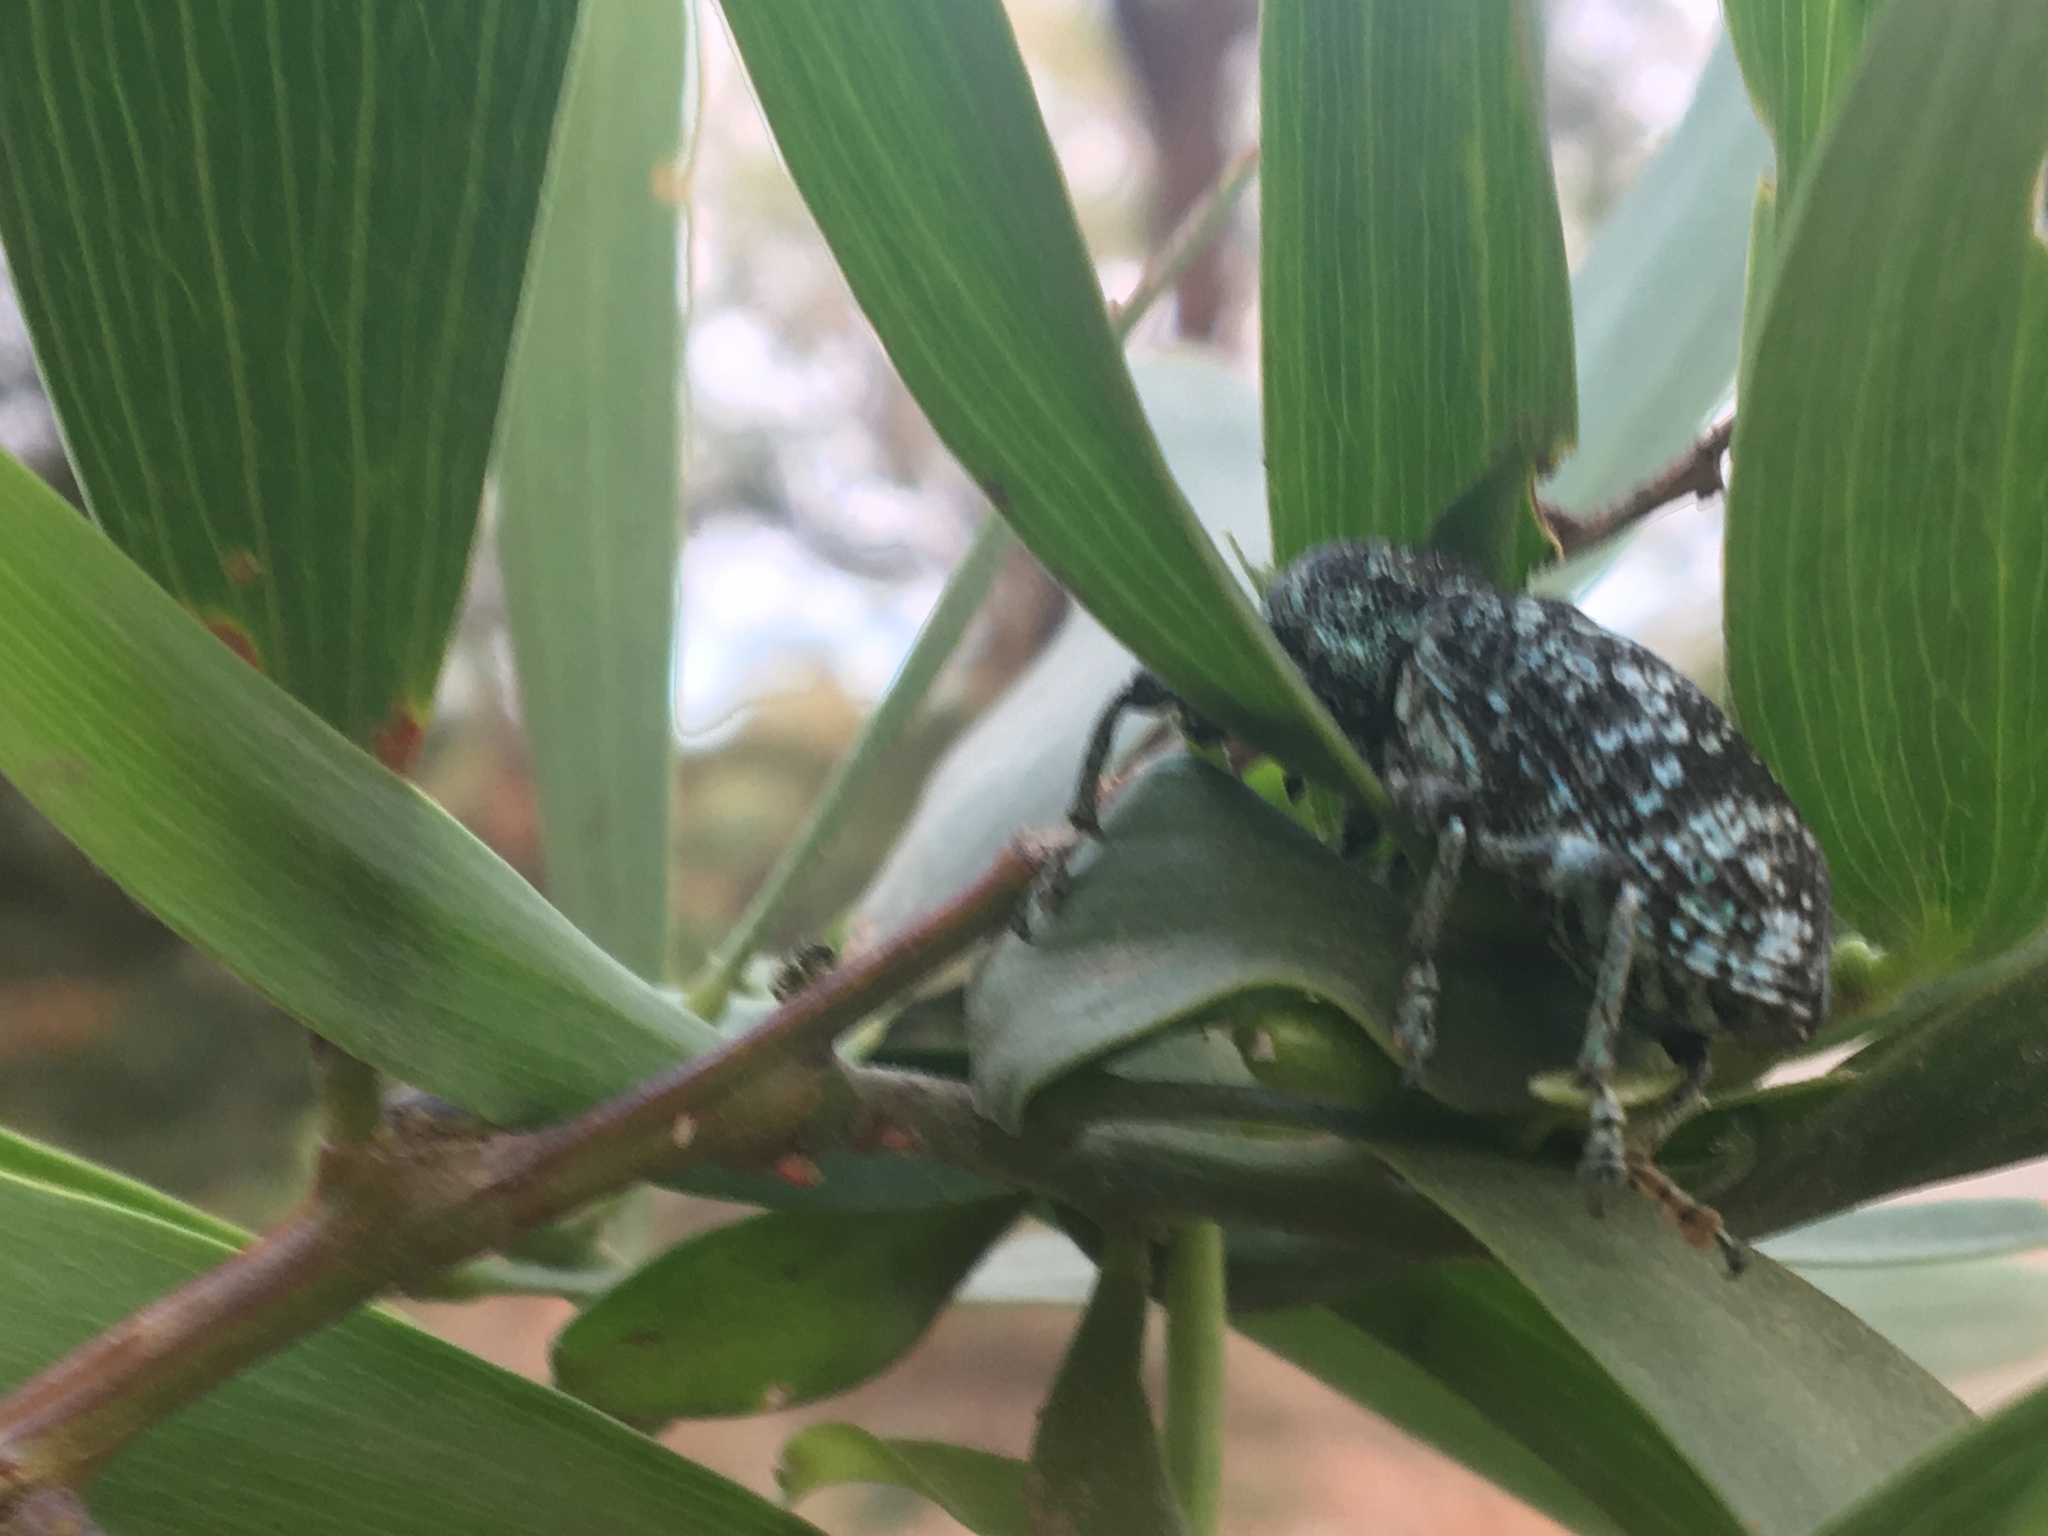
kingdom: Animalia
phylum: Arthropoda
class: Insecta
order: Coleoptera
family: Curculionidae
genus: Chrysolopus
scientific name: Chrysolopus spectabilis
